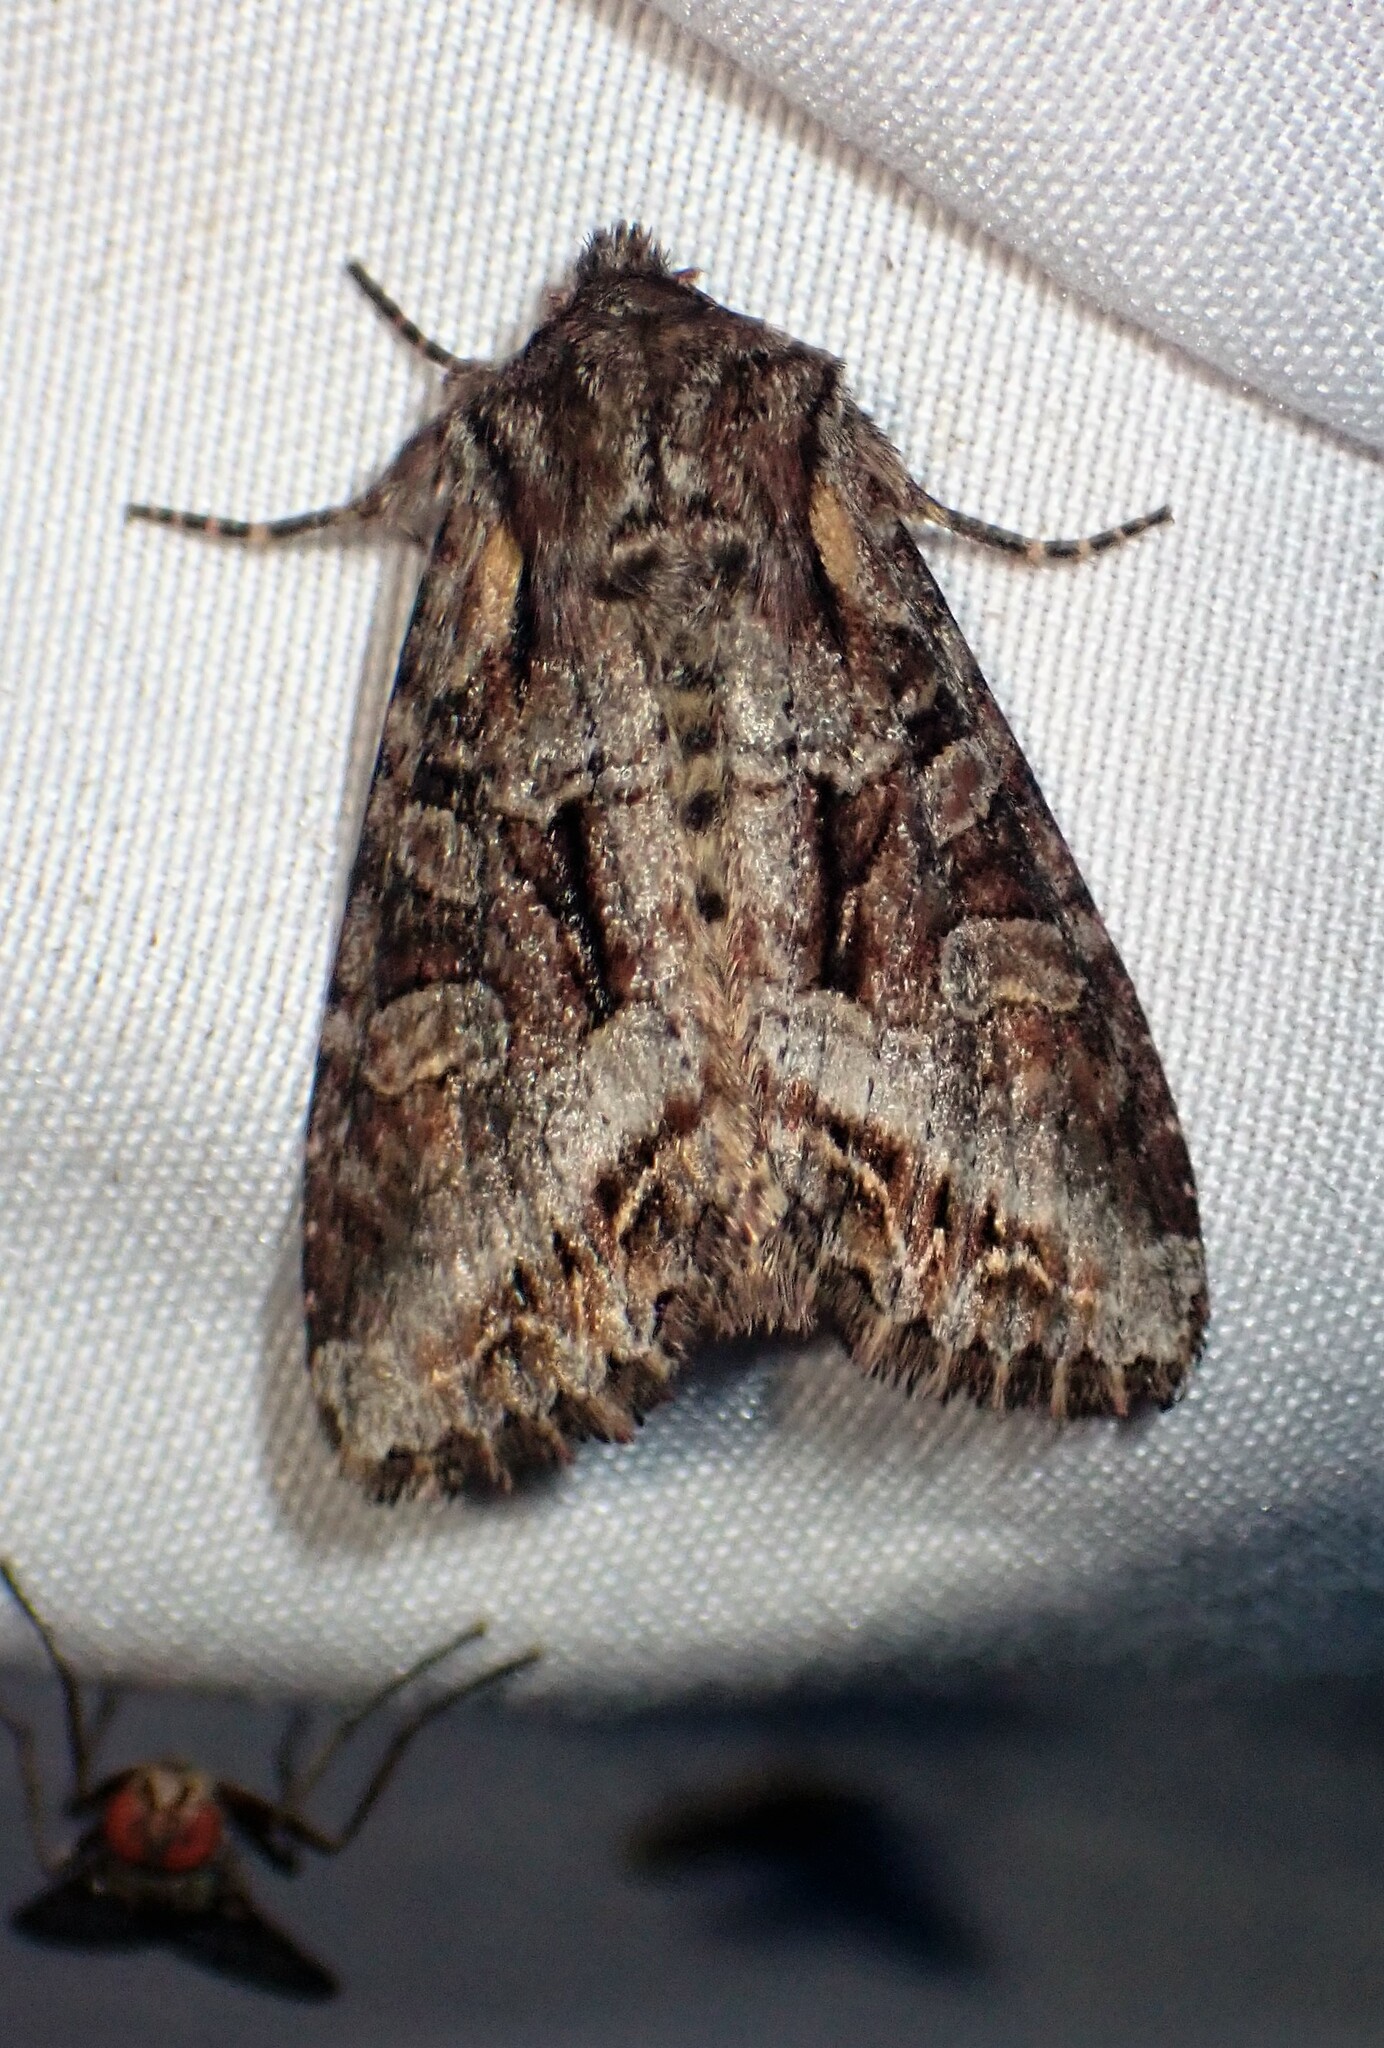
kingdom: Animalia
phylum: Arthropoda
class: Insecta
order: Lepidoptera
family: Noctuidae
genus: Lacanobia
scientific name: Lacanobia grandis
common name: Grand arches moth
